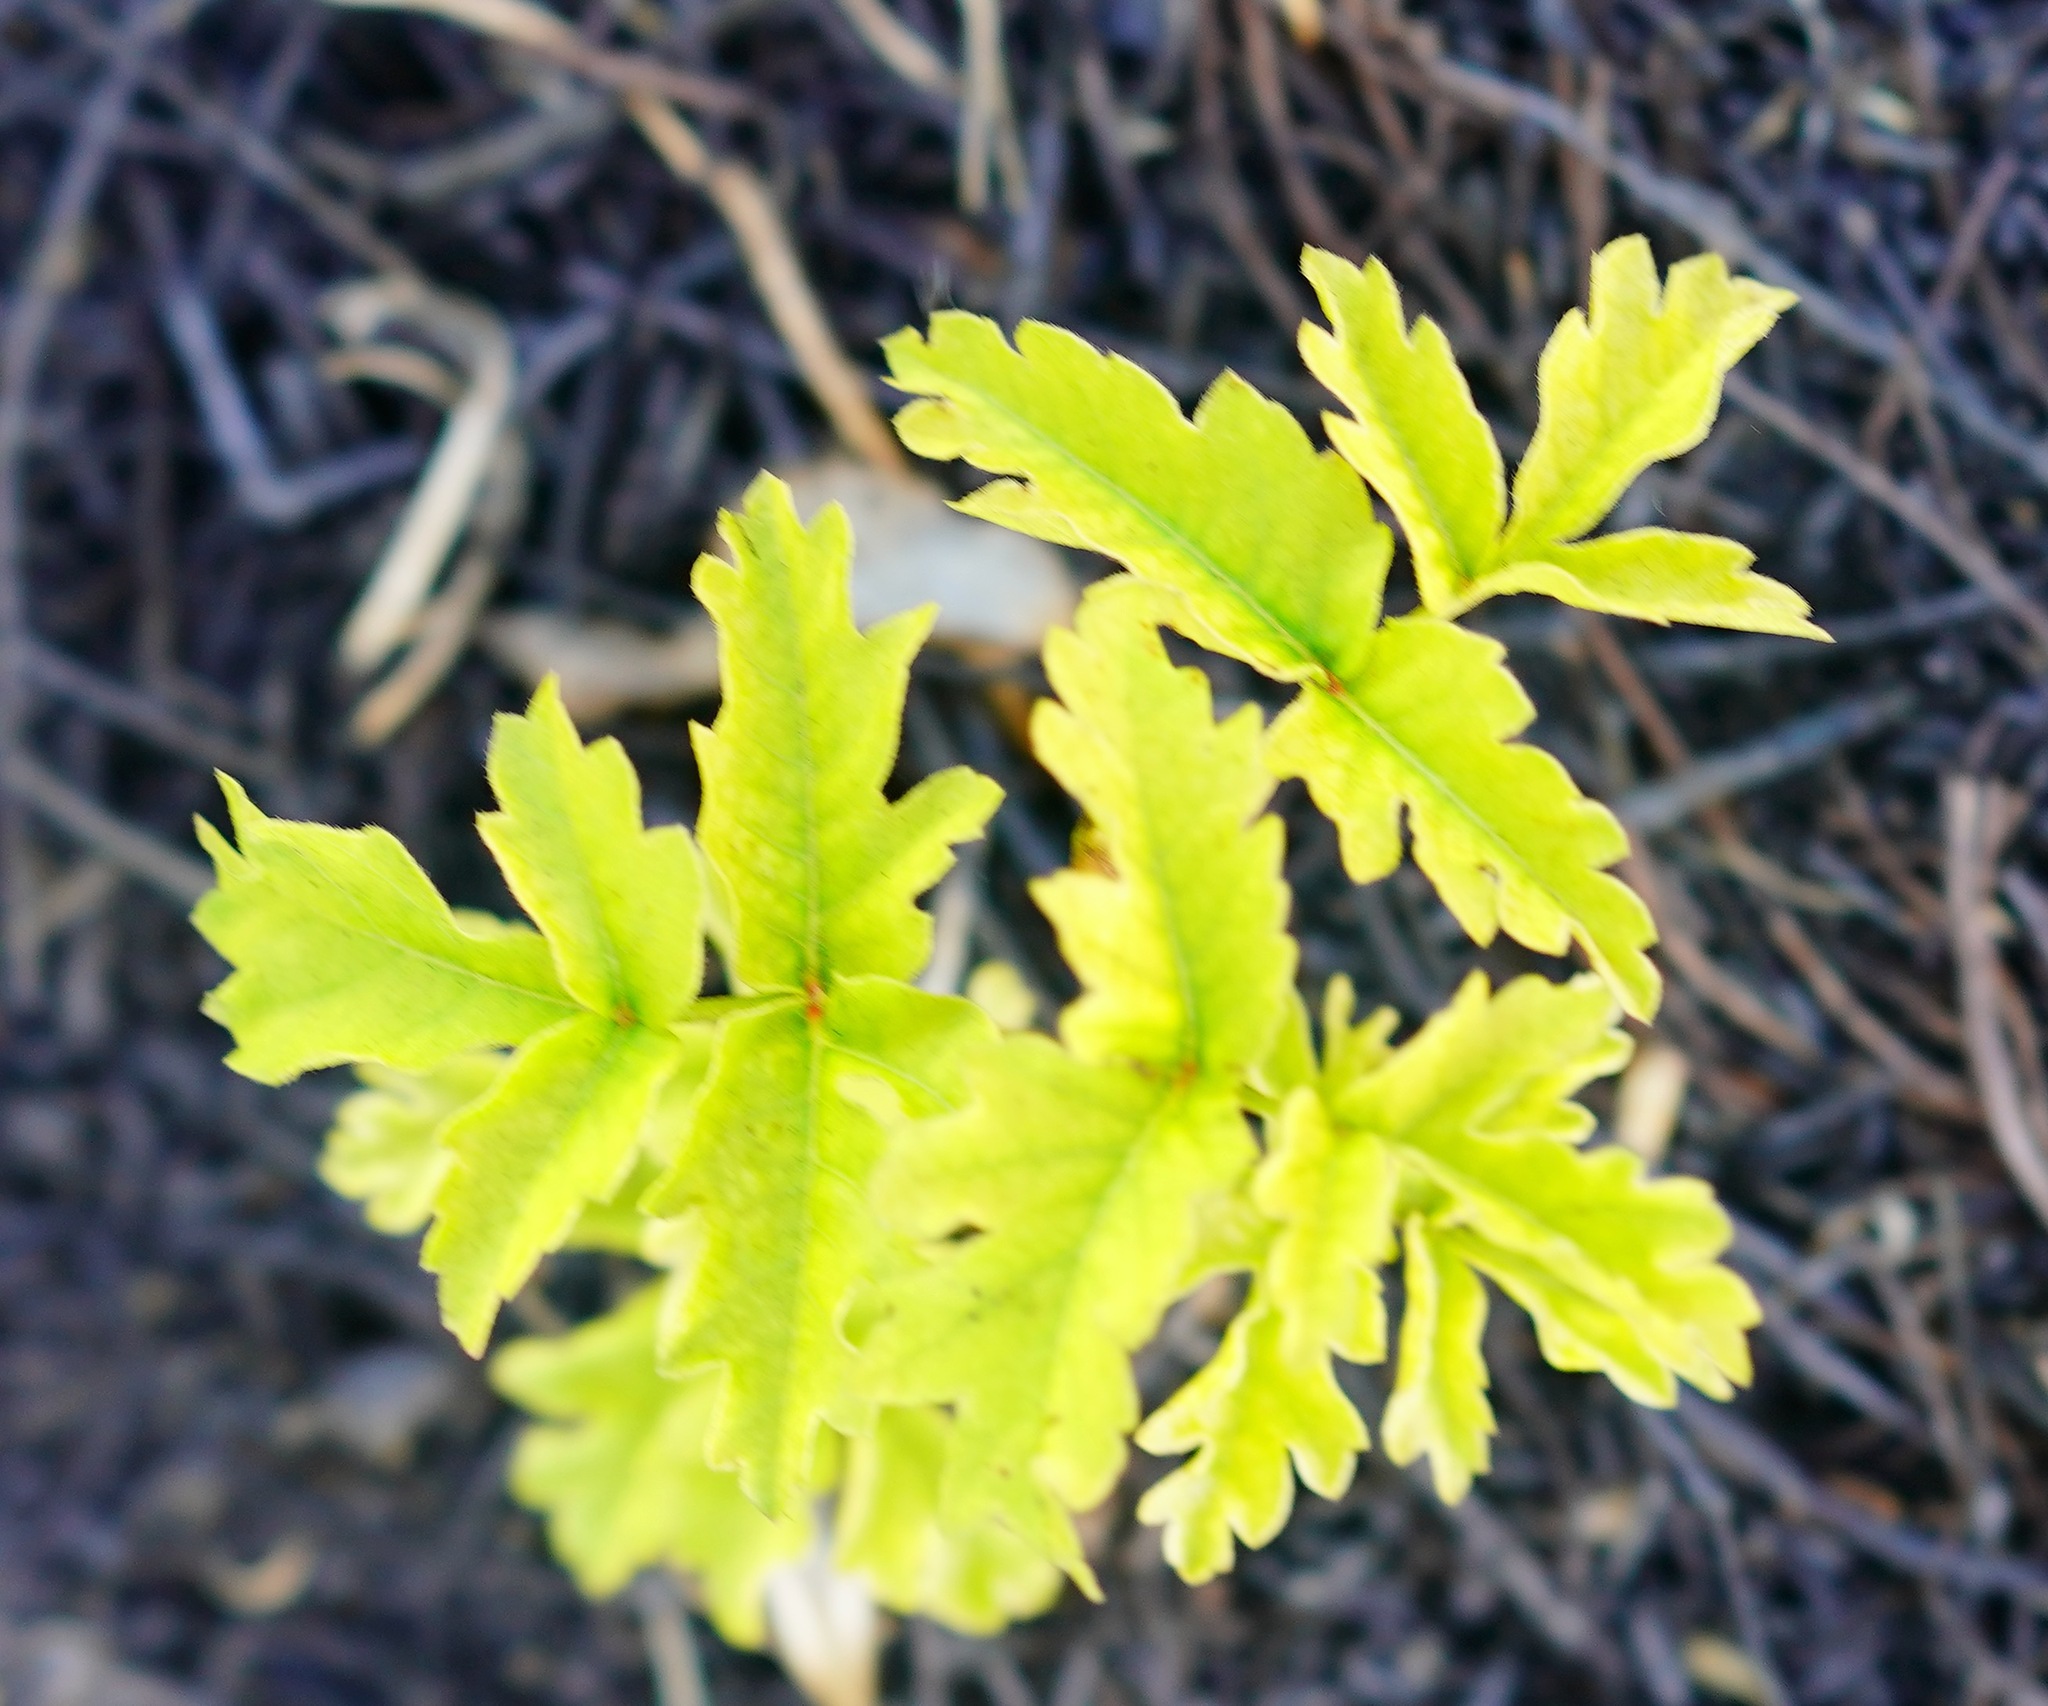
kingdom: Plantae
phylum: Tracheophyta
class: Magnoliopsida
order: Sapindales
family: Anacardiaceae
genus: Toxicodendron
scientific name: Toxicodendron diversilobum
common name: Pacific poison-oak
